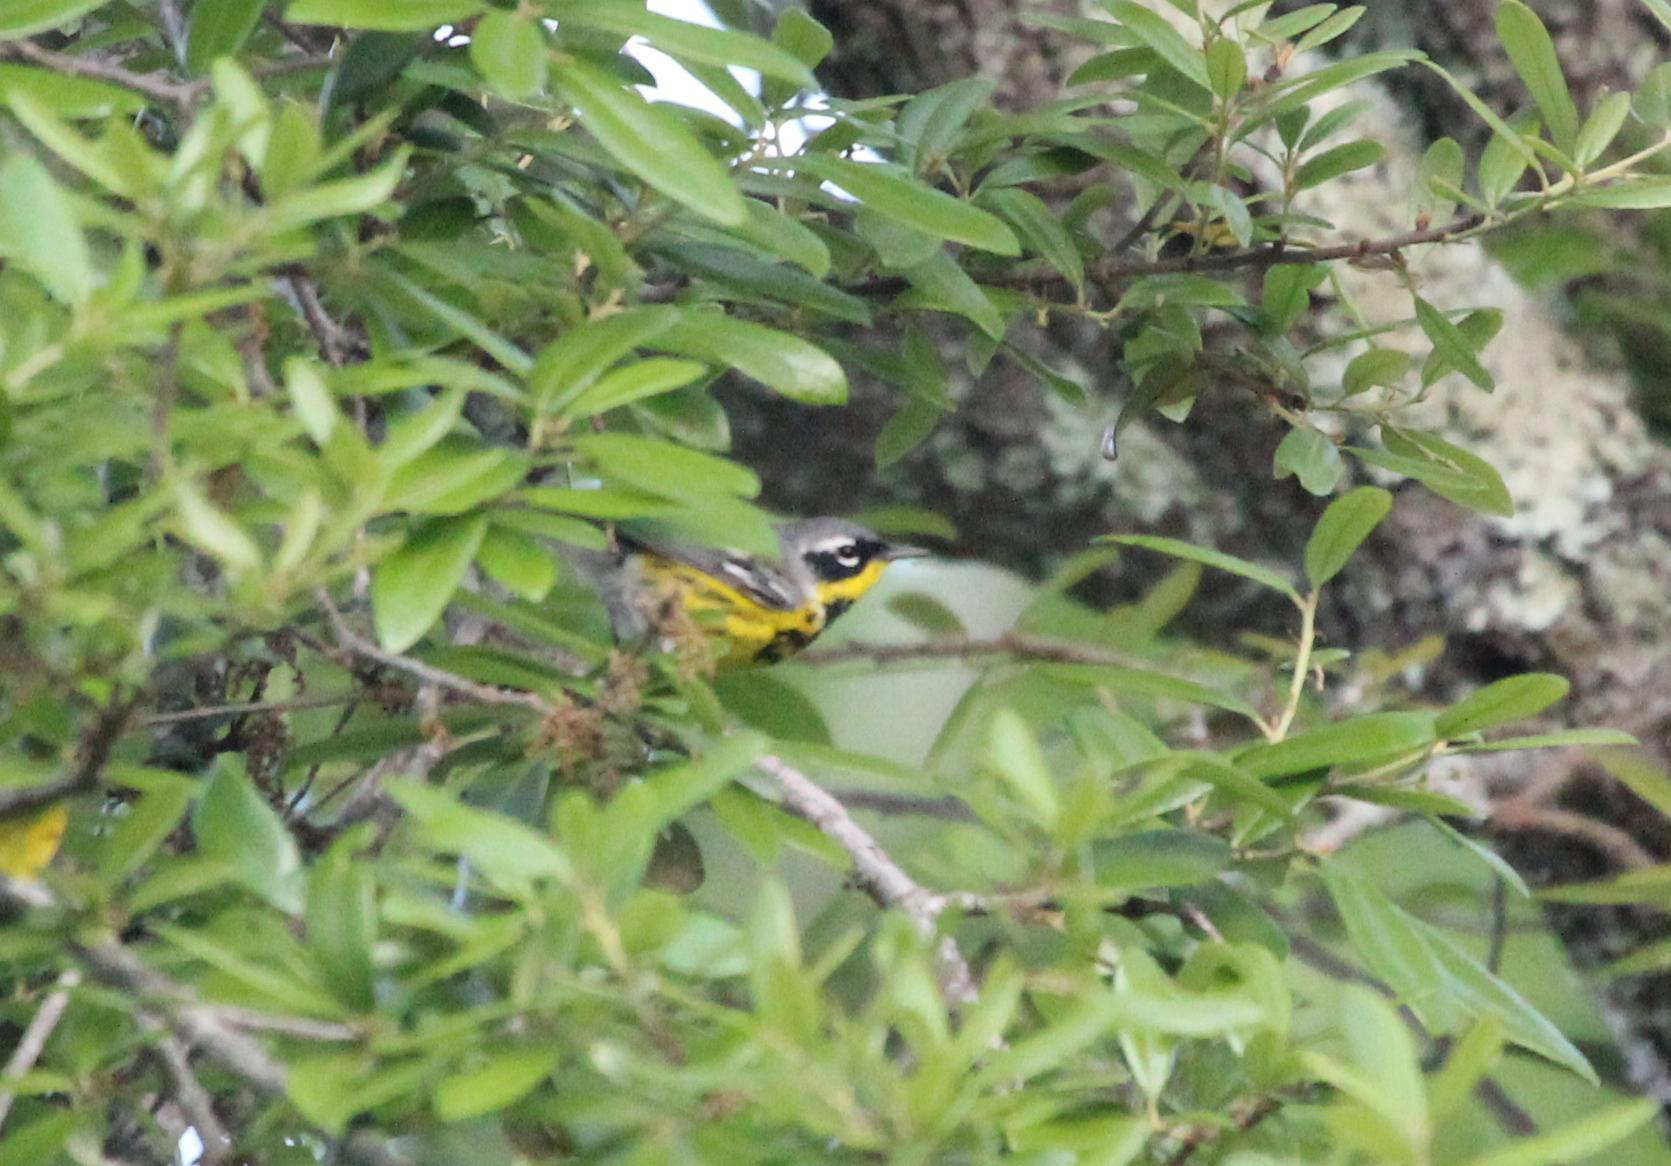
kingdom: Animalia
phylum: Chordata
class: Aves
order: Passeriformes
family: Parulidae
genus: Setophaga
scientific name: Setophaga magnolia
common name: Magnolia warbler
